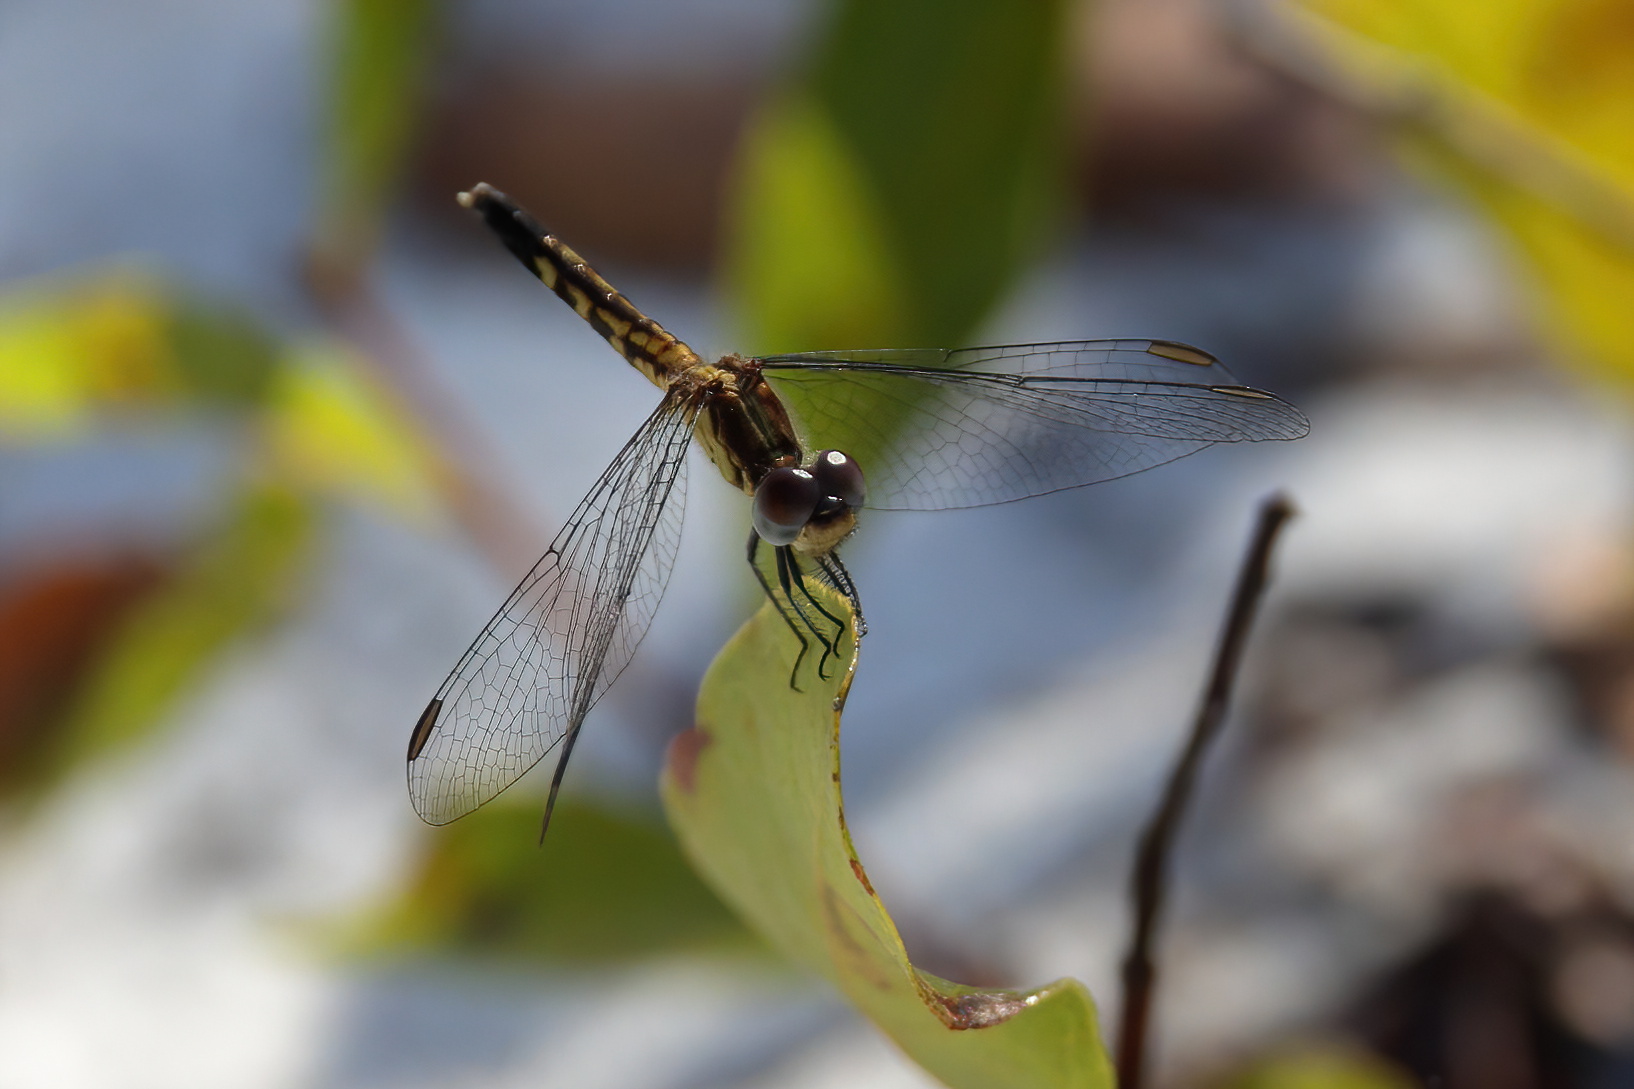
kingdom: Animalia
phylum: Arthropoda
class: Insecta
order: Odonata
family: Libellulidae
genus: Erythrodiplax
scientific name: Erythrodiplax minuscula
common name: Little blue dragonlet
